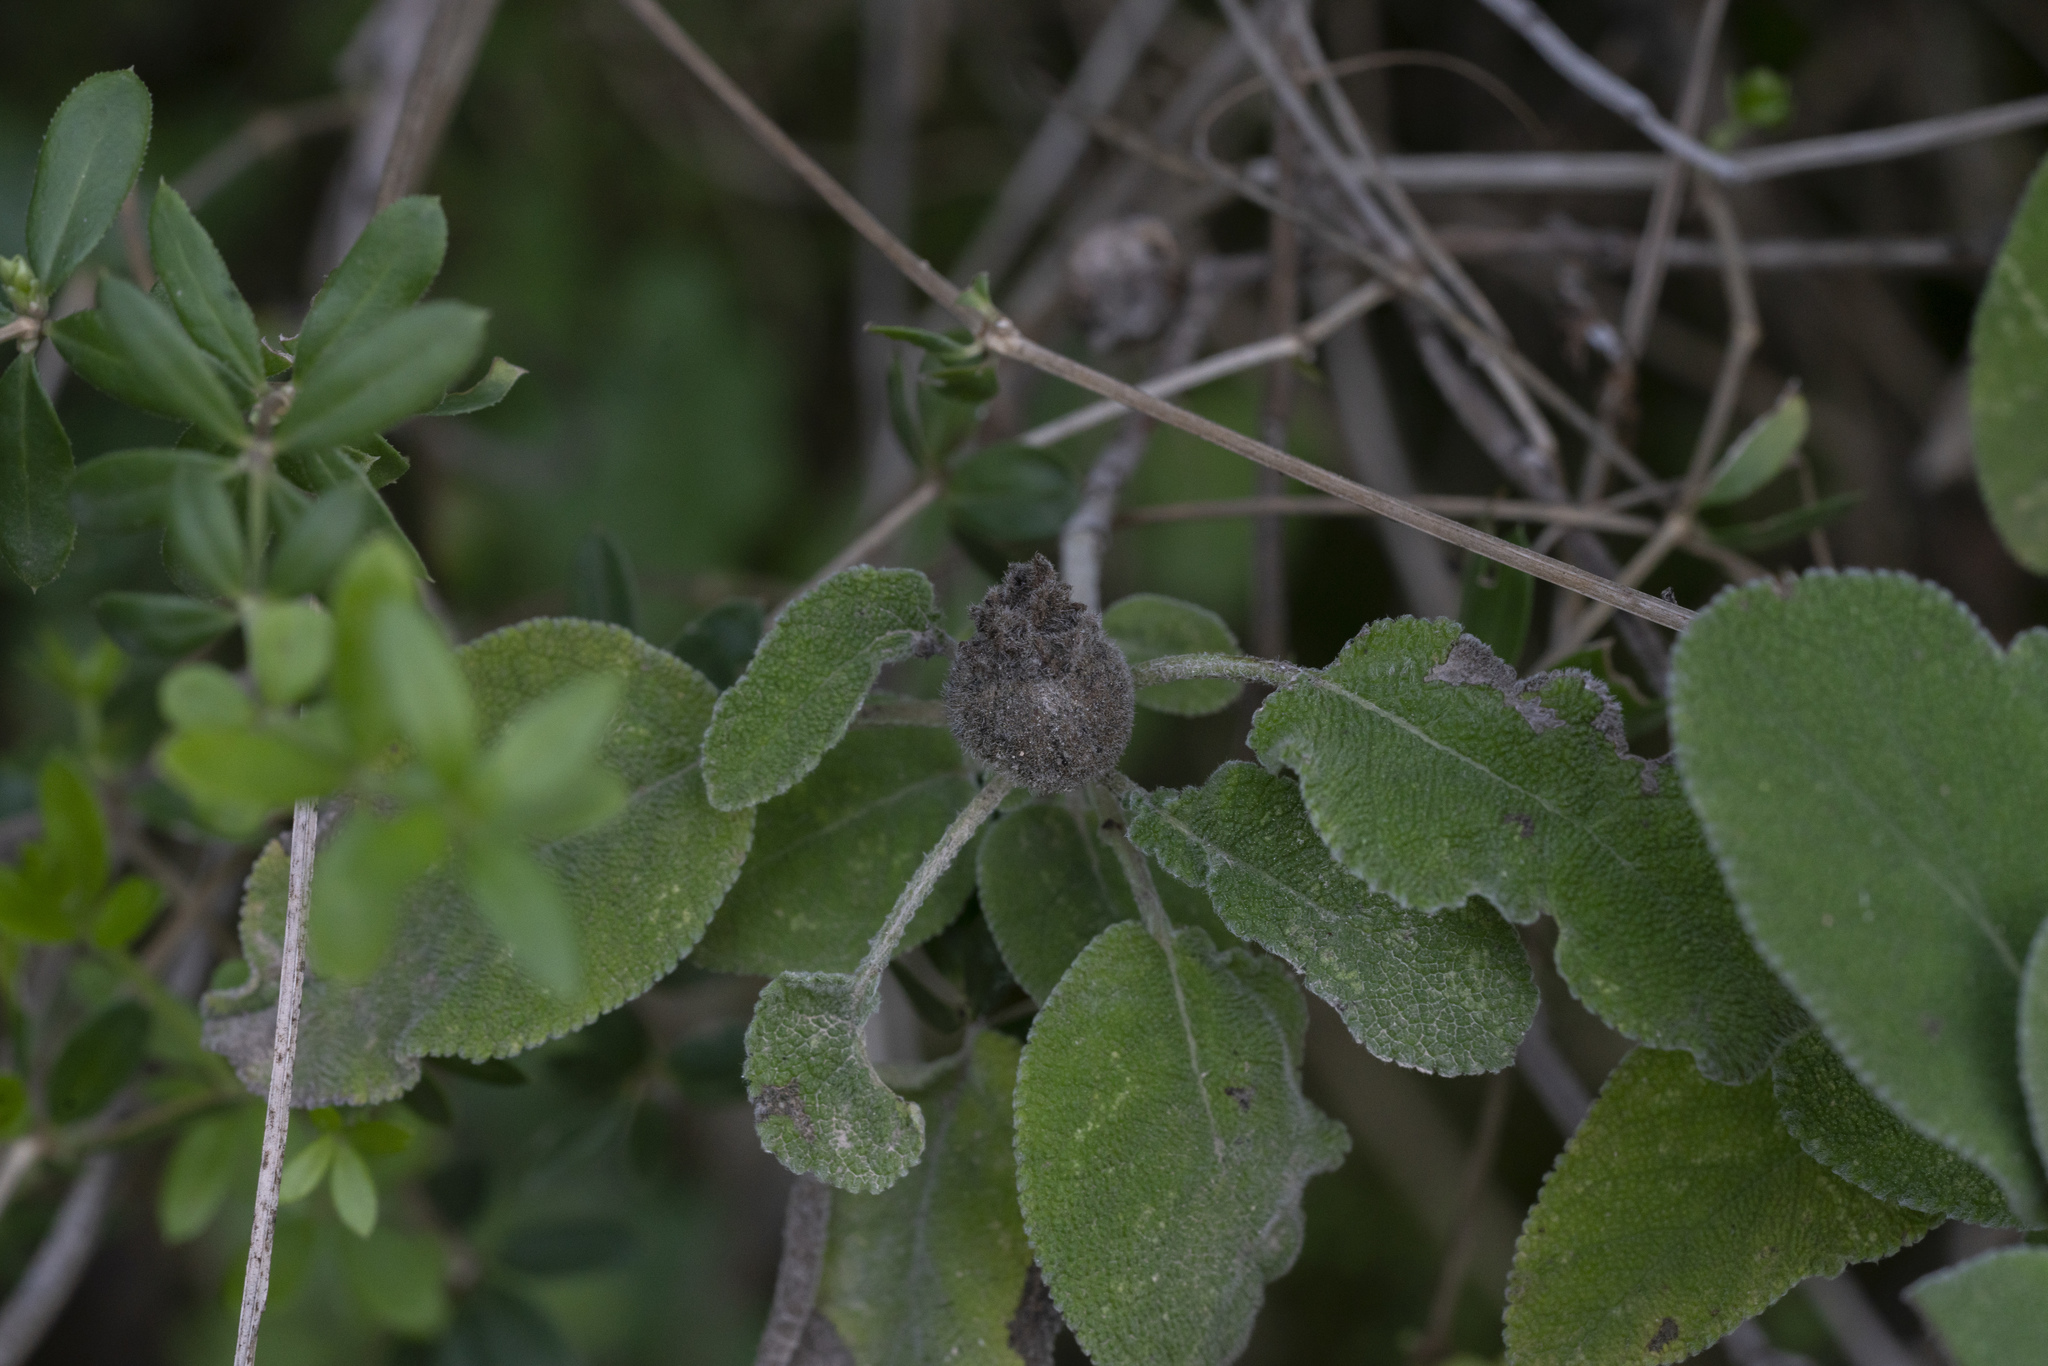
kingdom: Animalia
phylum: Arthropoda
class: Insecta
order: Hymenoptera
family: Cynipidae
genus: Rhodus
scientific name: Rhodus
